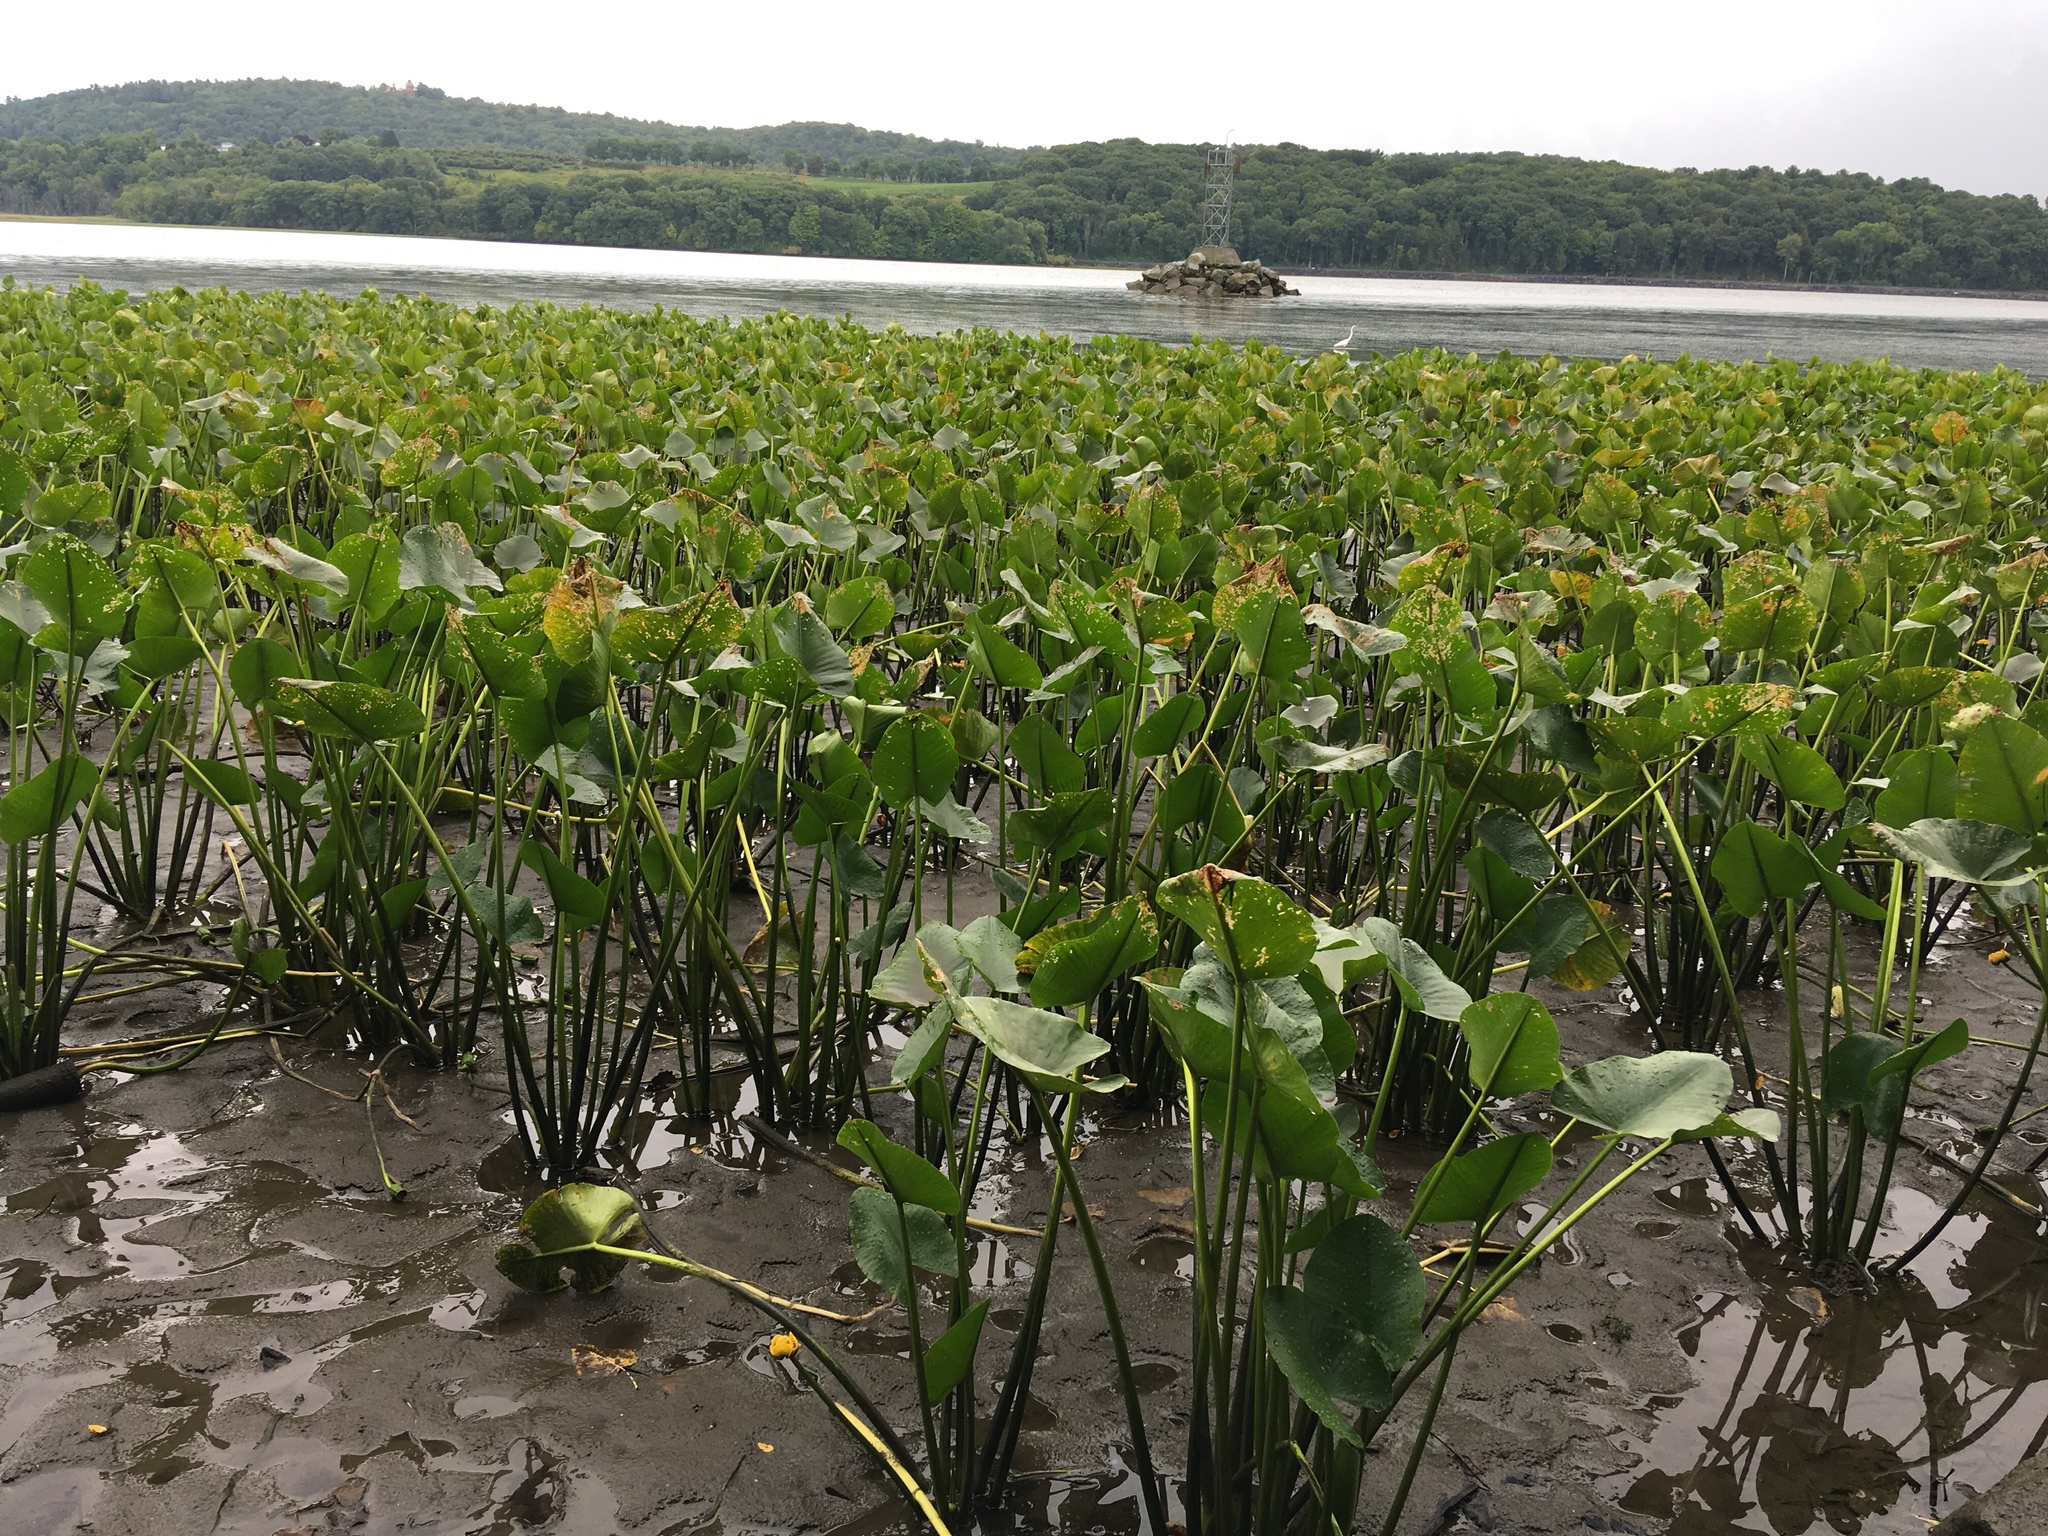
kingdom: Plantae
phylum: Tracheophyta
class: Magnoliopsida
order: Nymphaeales
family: Nymphaeaceae
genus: Nuphar
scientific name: Nuphar advena
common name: Spatter-dock
